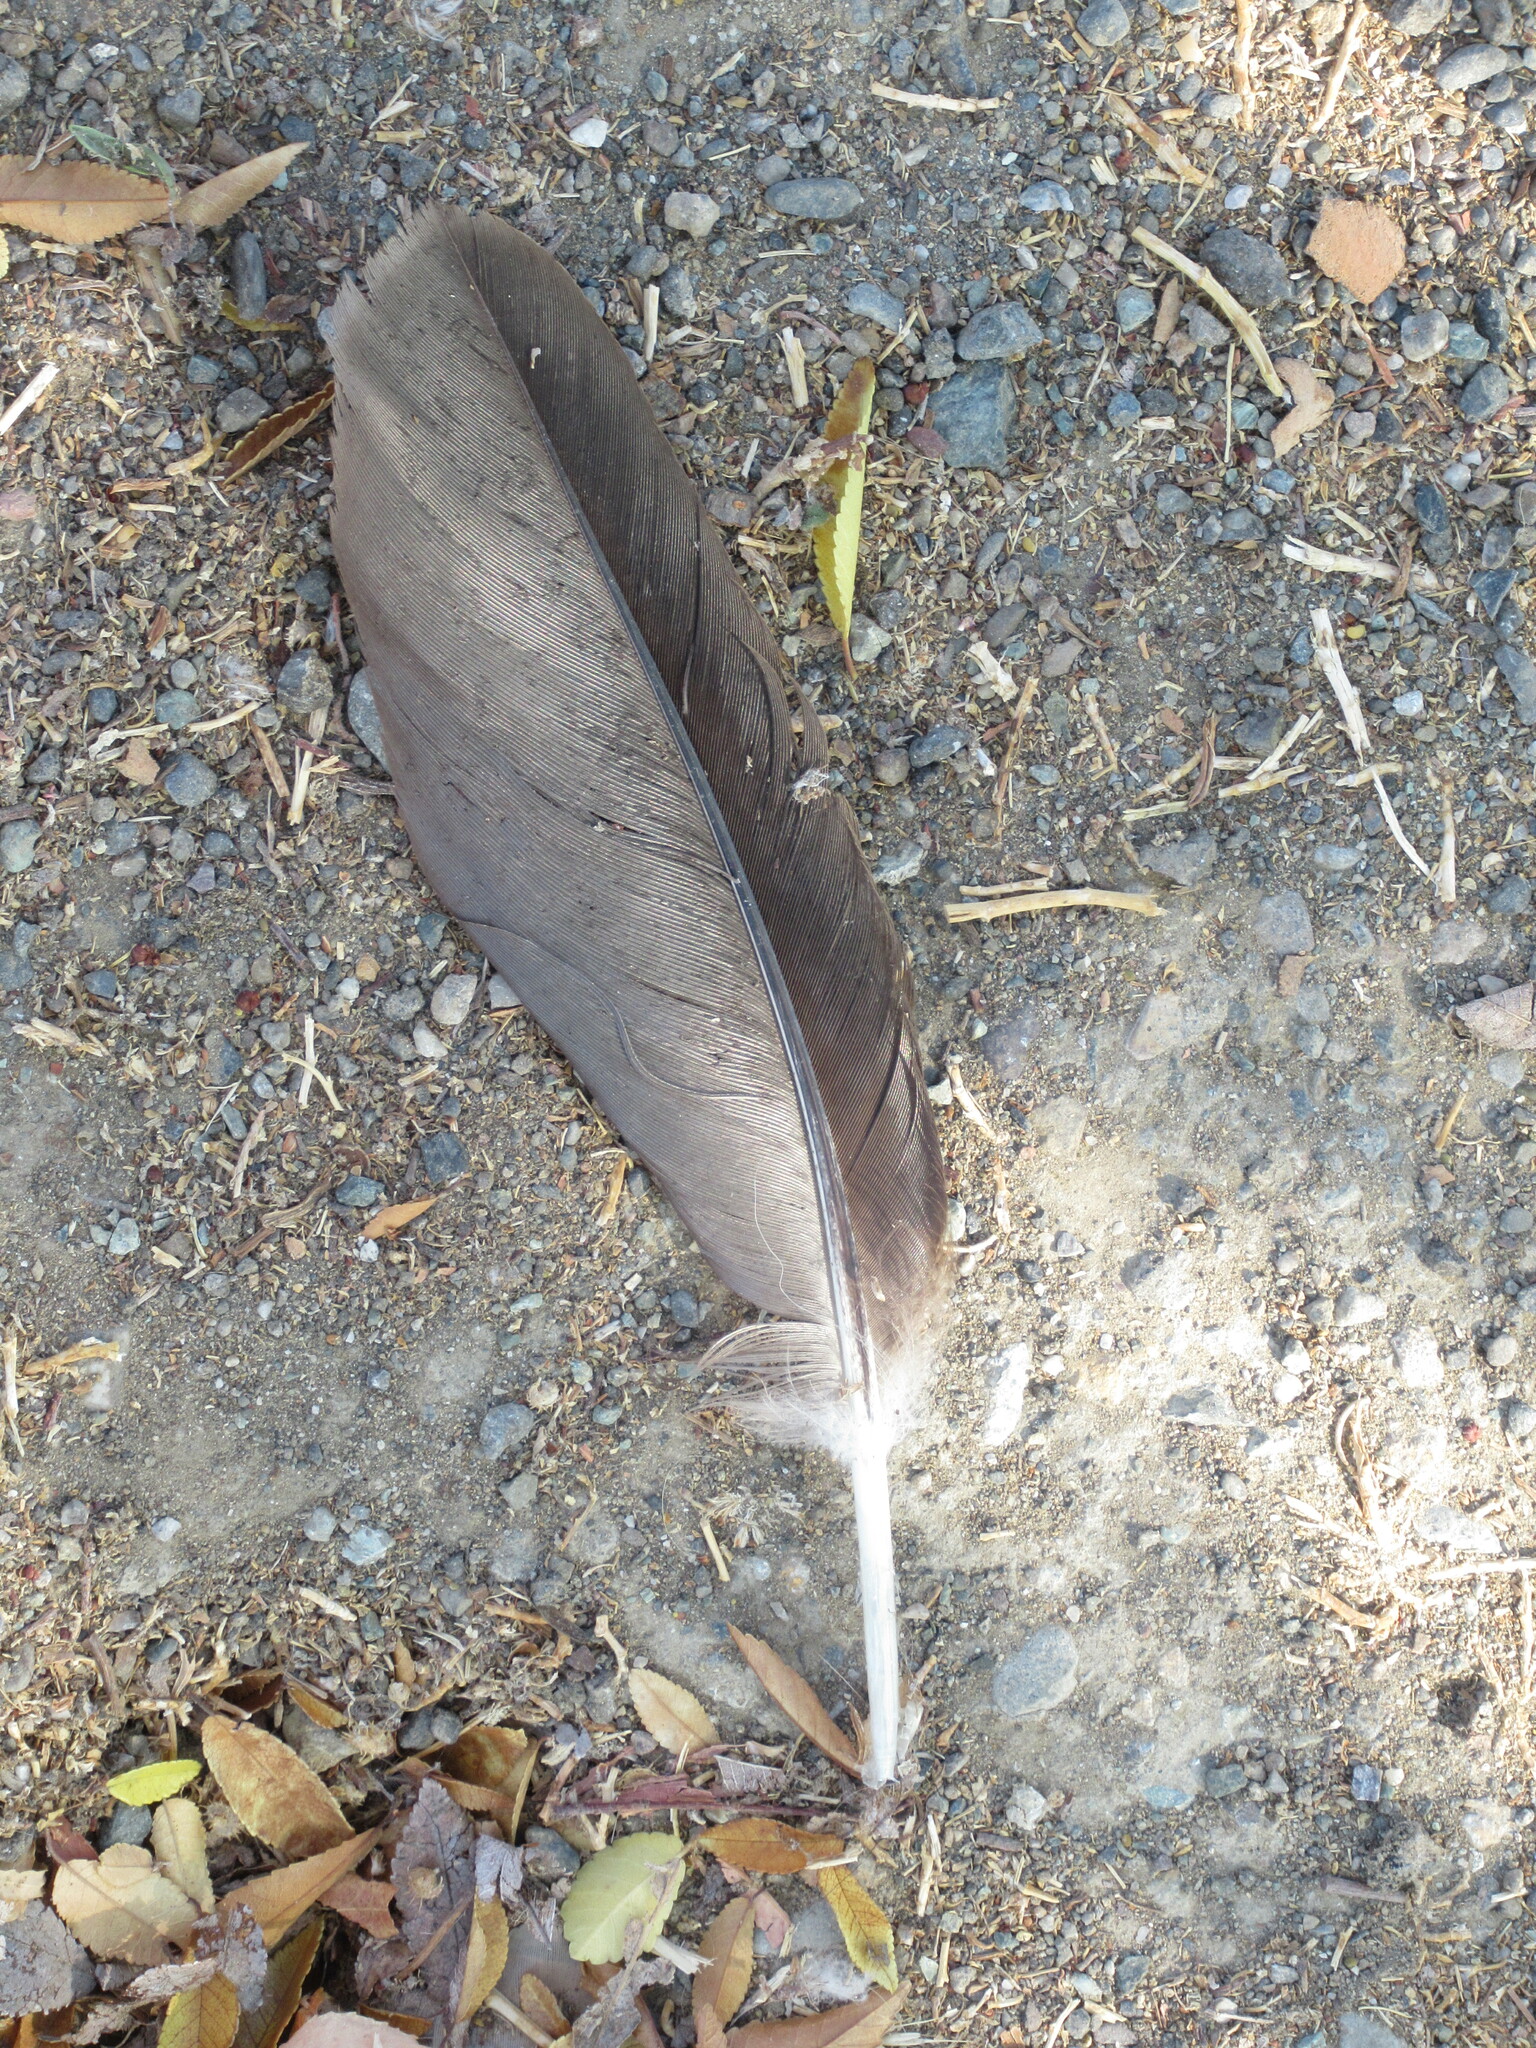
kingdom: Animalia
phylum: Chordata
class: Aves
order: Anseriformes
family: Anatidae
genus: Branta
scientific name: Branta canadensis
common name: Canada goose
